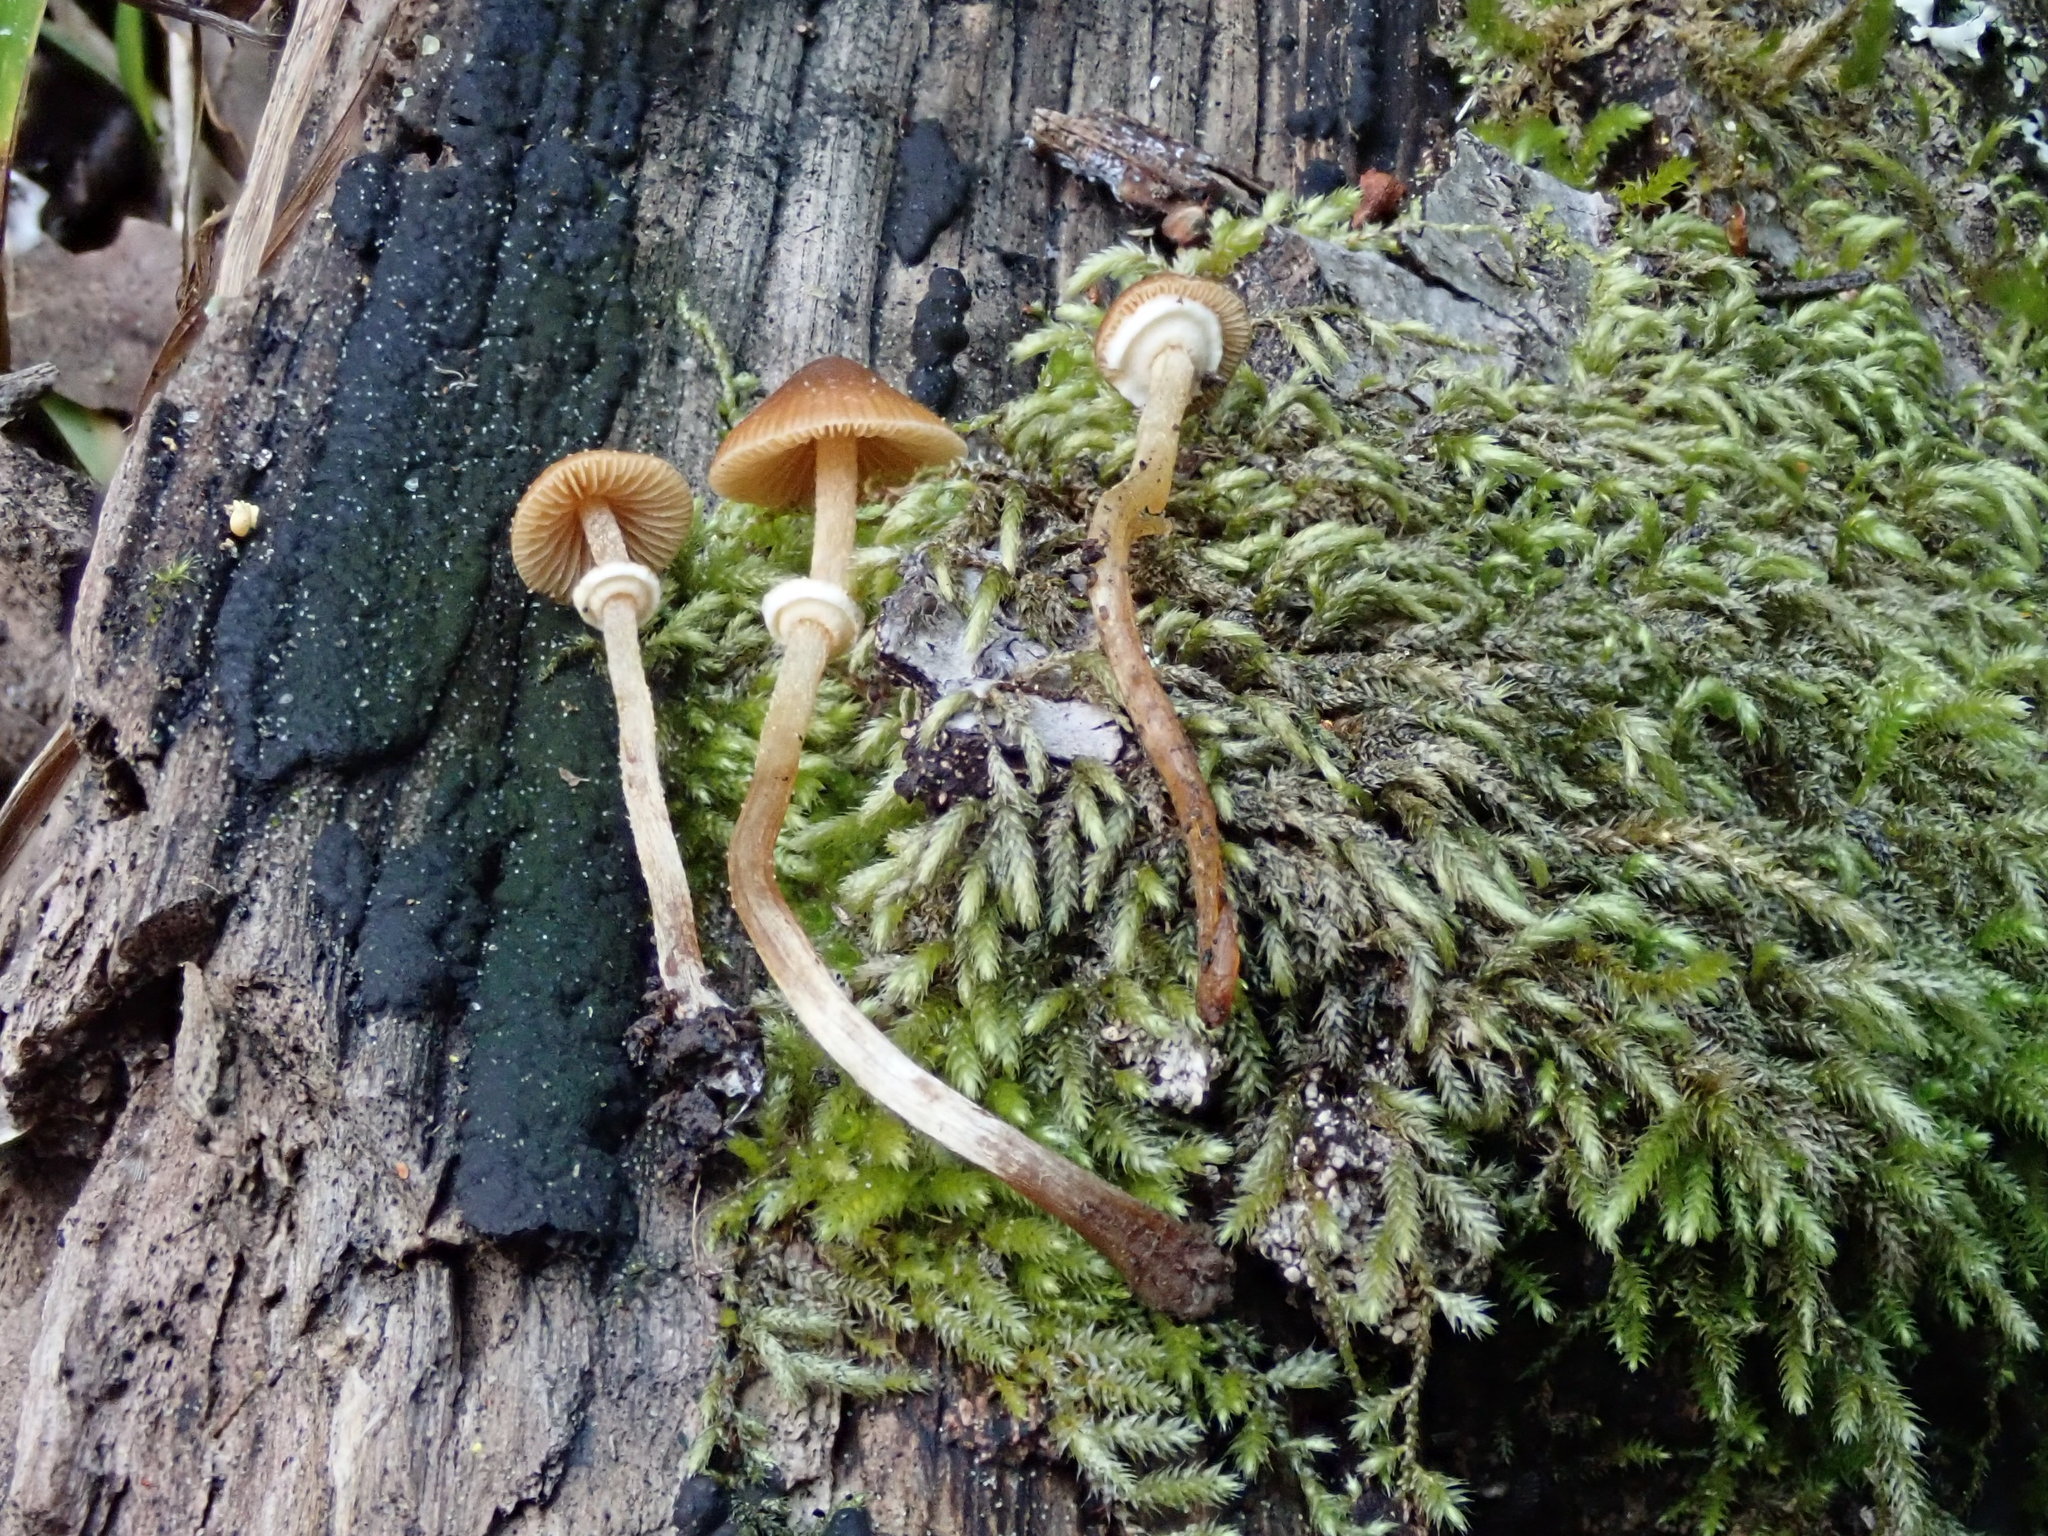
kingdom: Fungi
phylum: Basidiomycota
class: Agaricomycetes
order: Agaricales
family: Bolbitiaceae
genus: Conocybe
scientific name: Conocybe rugosa
